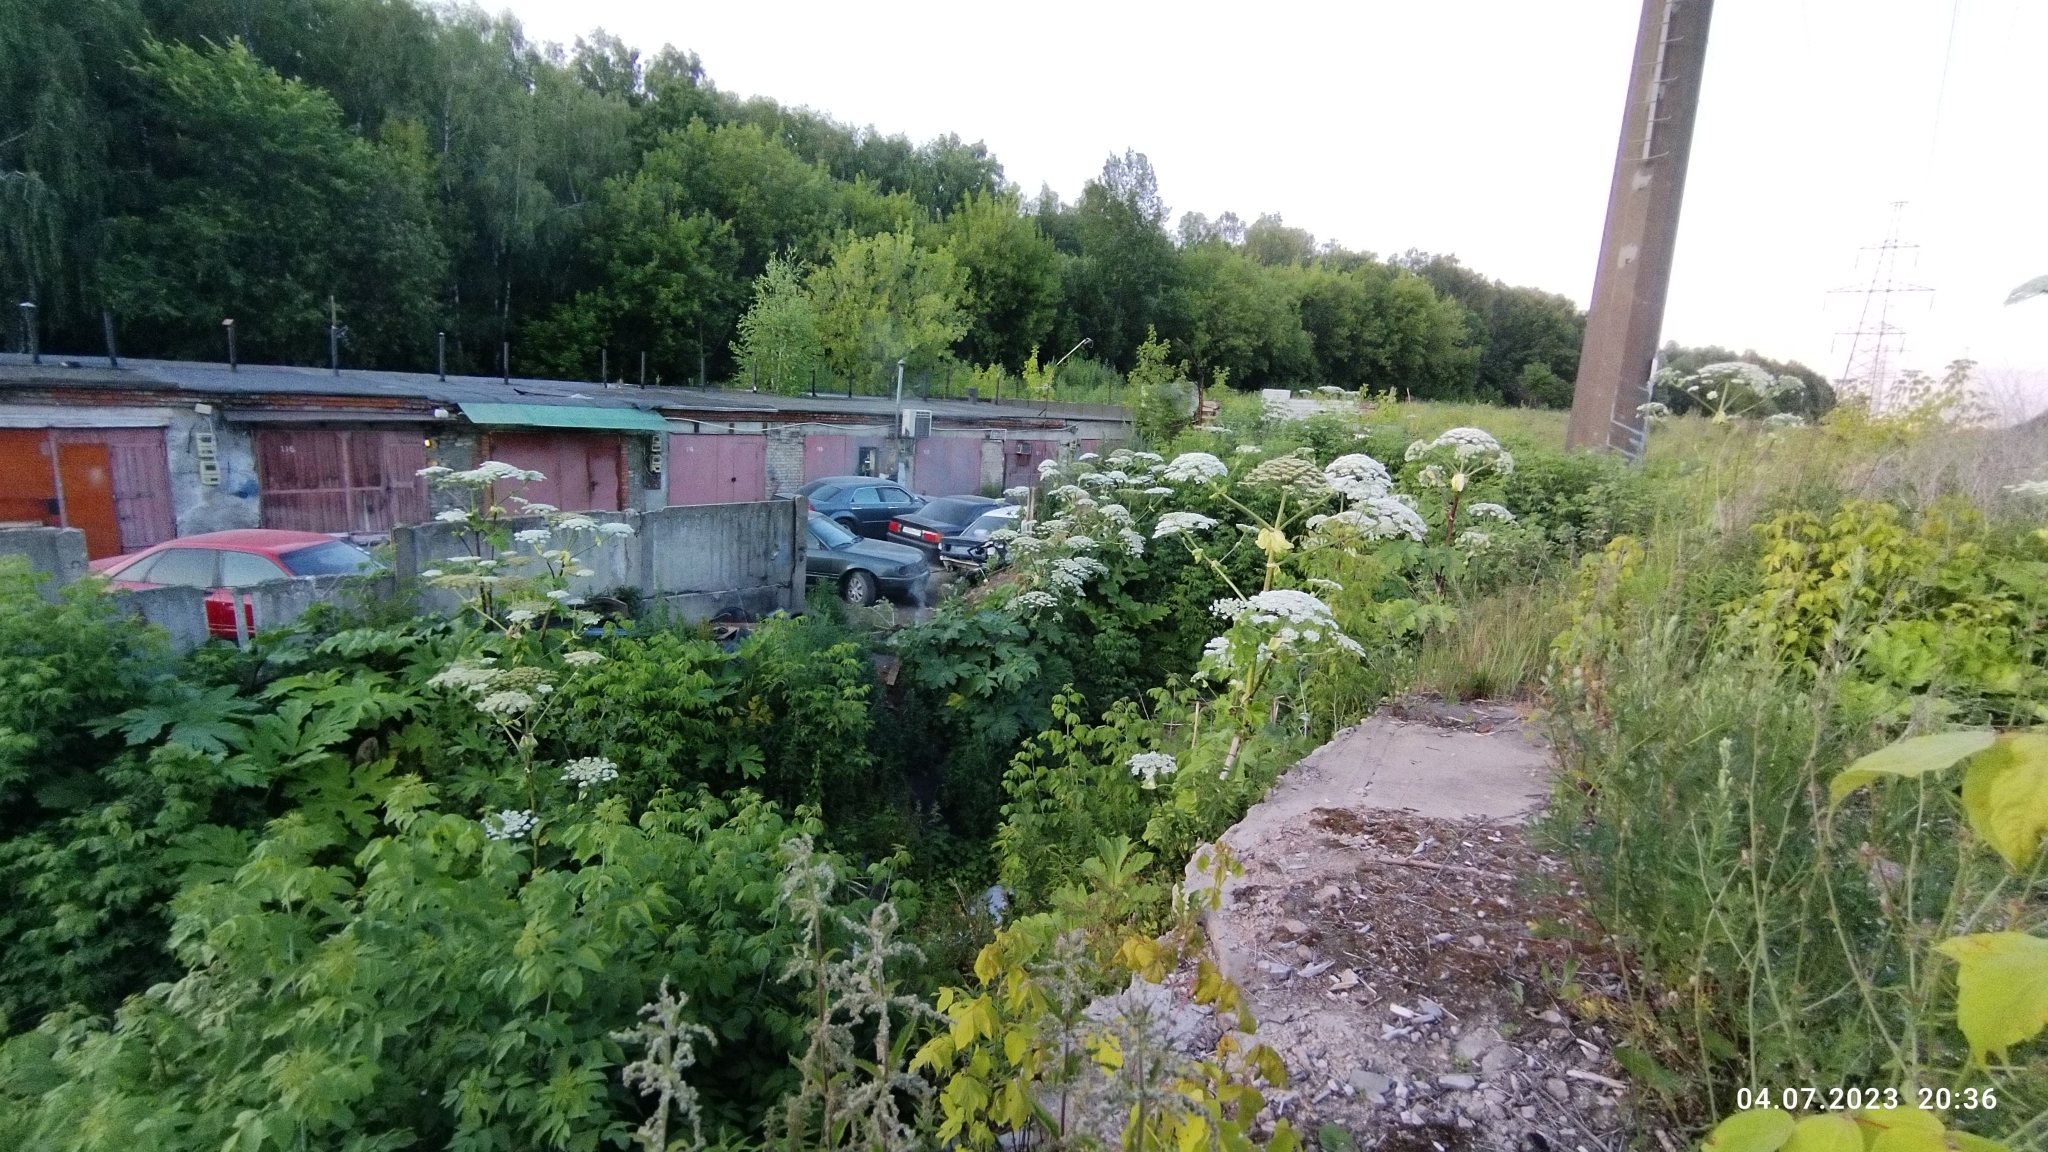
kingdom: Plantae
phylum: Tracheophyta
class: Magnoliopsida
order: Apiales
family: Apiaceae
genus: Heracleum
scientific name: Heracleum sosnowskyi
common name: Sosnowsky's hogweed
